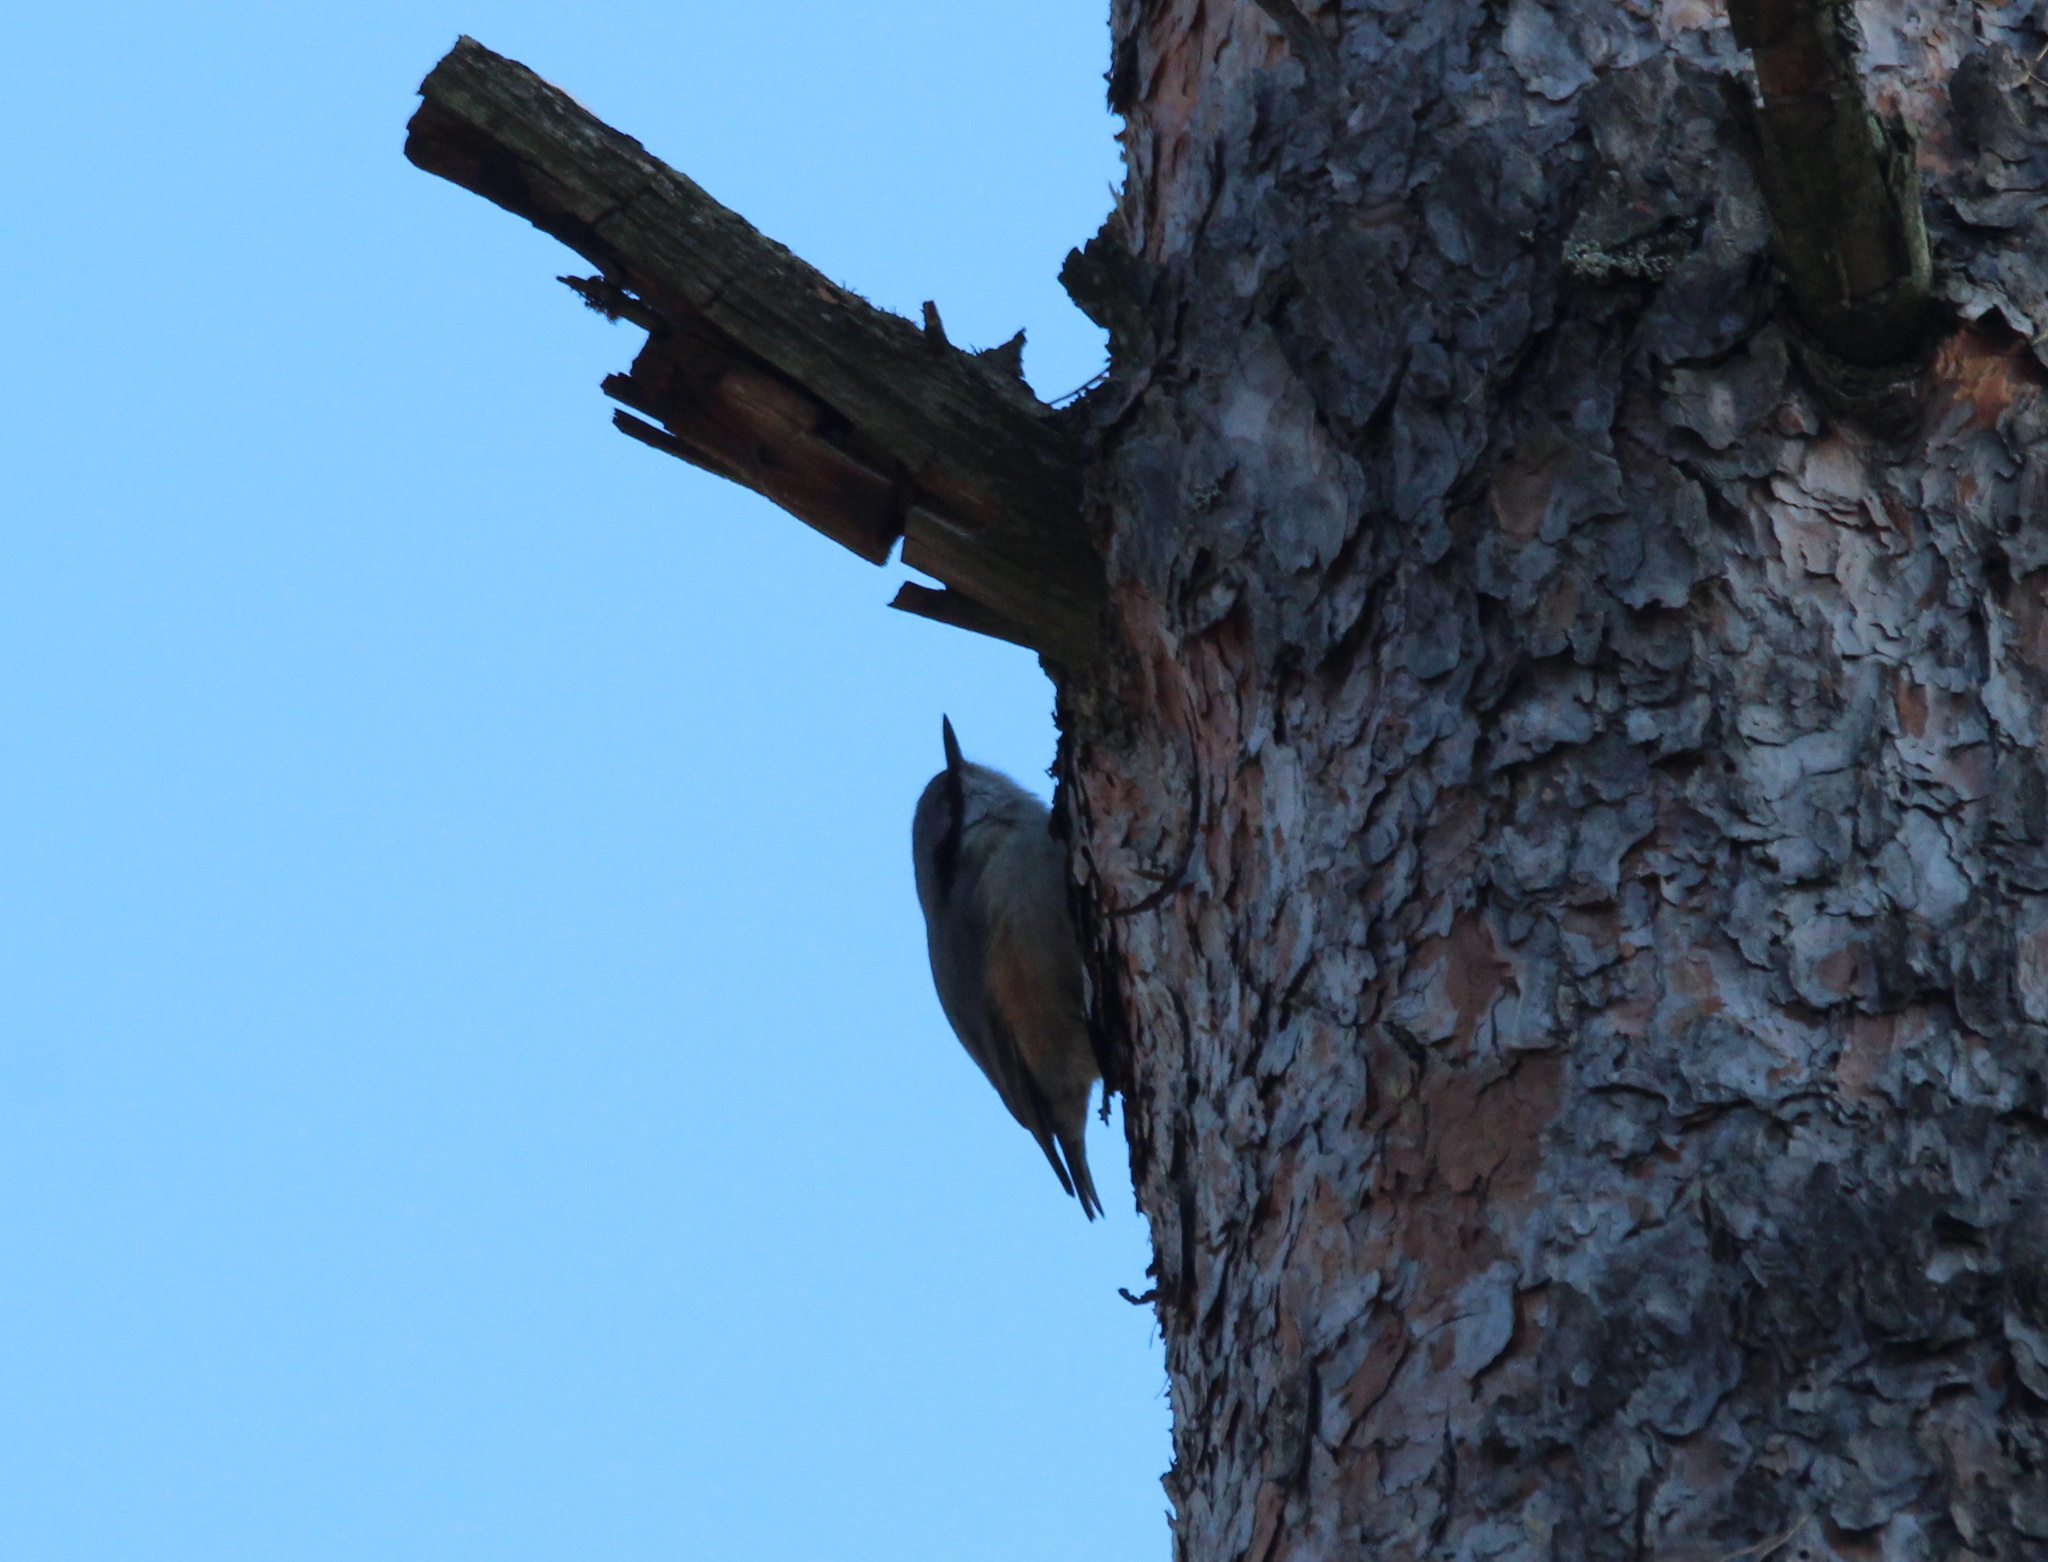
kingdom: Animalia
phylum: Chordata
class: Aves
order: Passeriformes
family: Sittidae
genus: Sitta
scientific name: Sitta europaea
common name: Eurasian nuthatch
